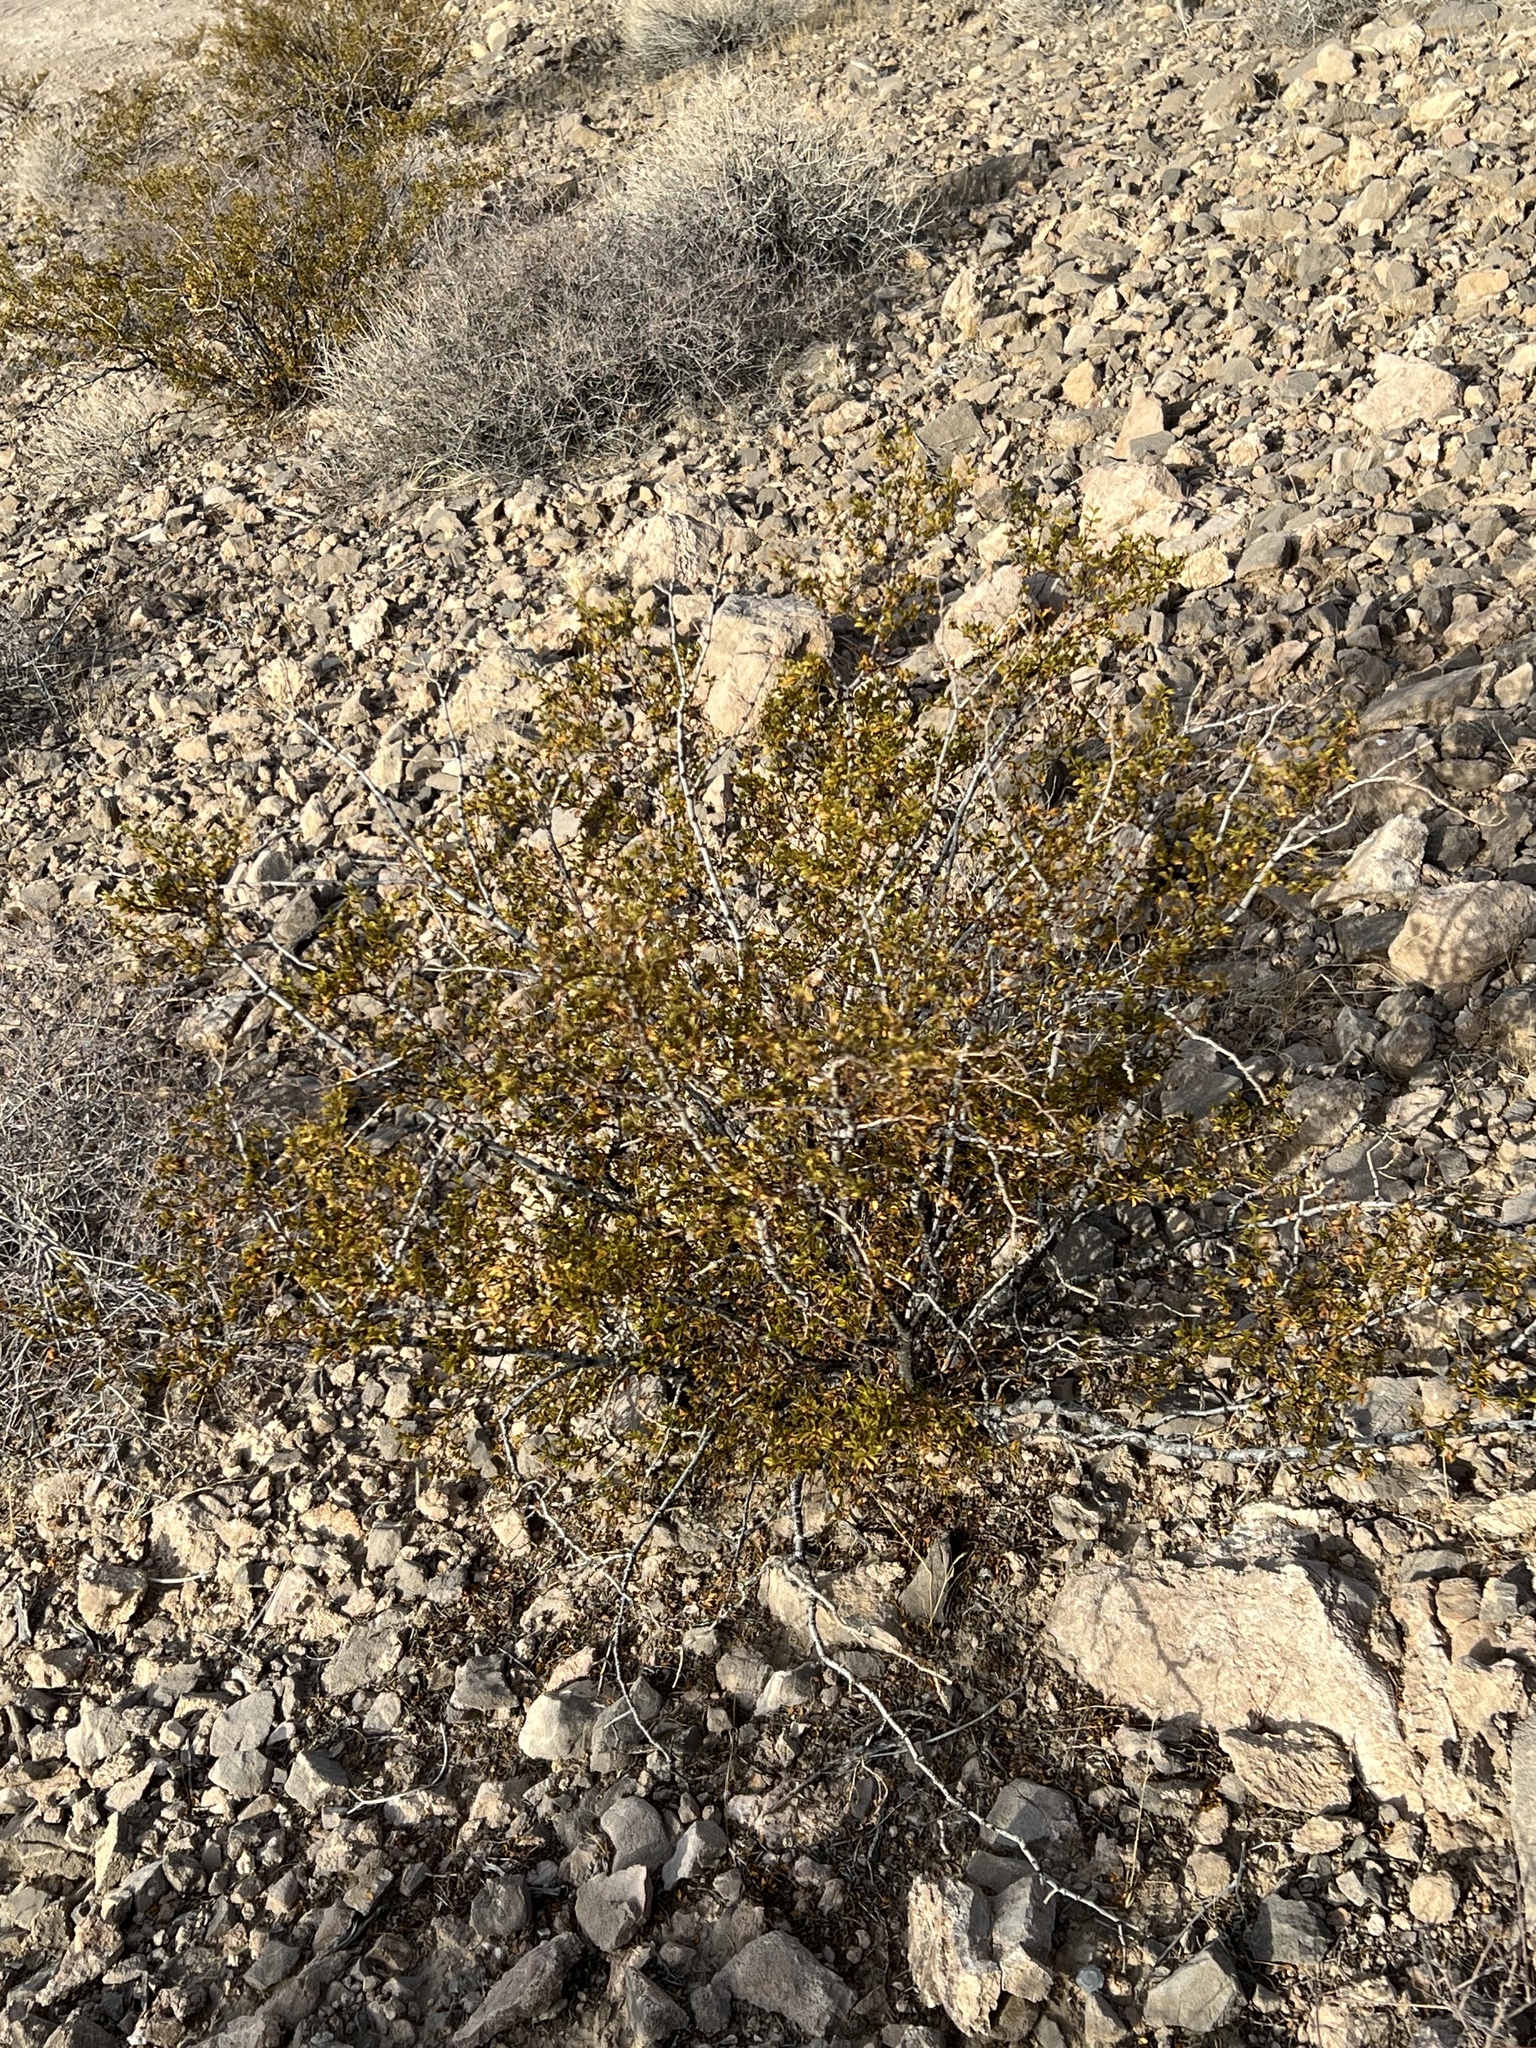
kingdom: Plantae
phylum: Tracheophyta
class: Magnoliopsida
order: Zygophyllales
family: Zygophyllaceae
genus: Larrea
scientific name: Larrea tridentata
